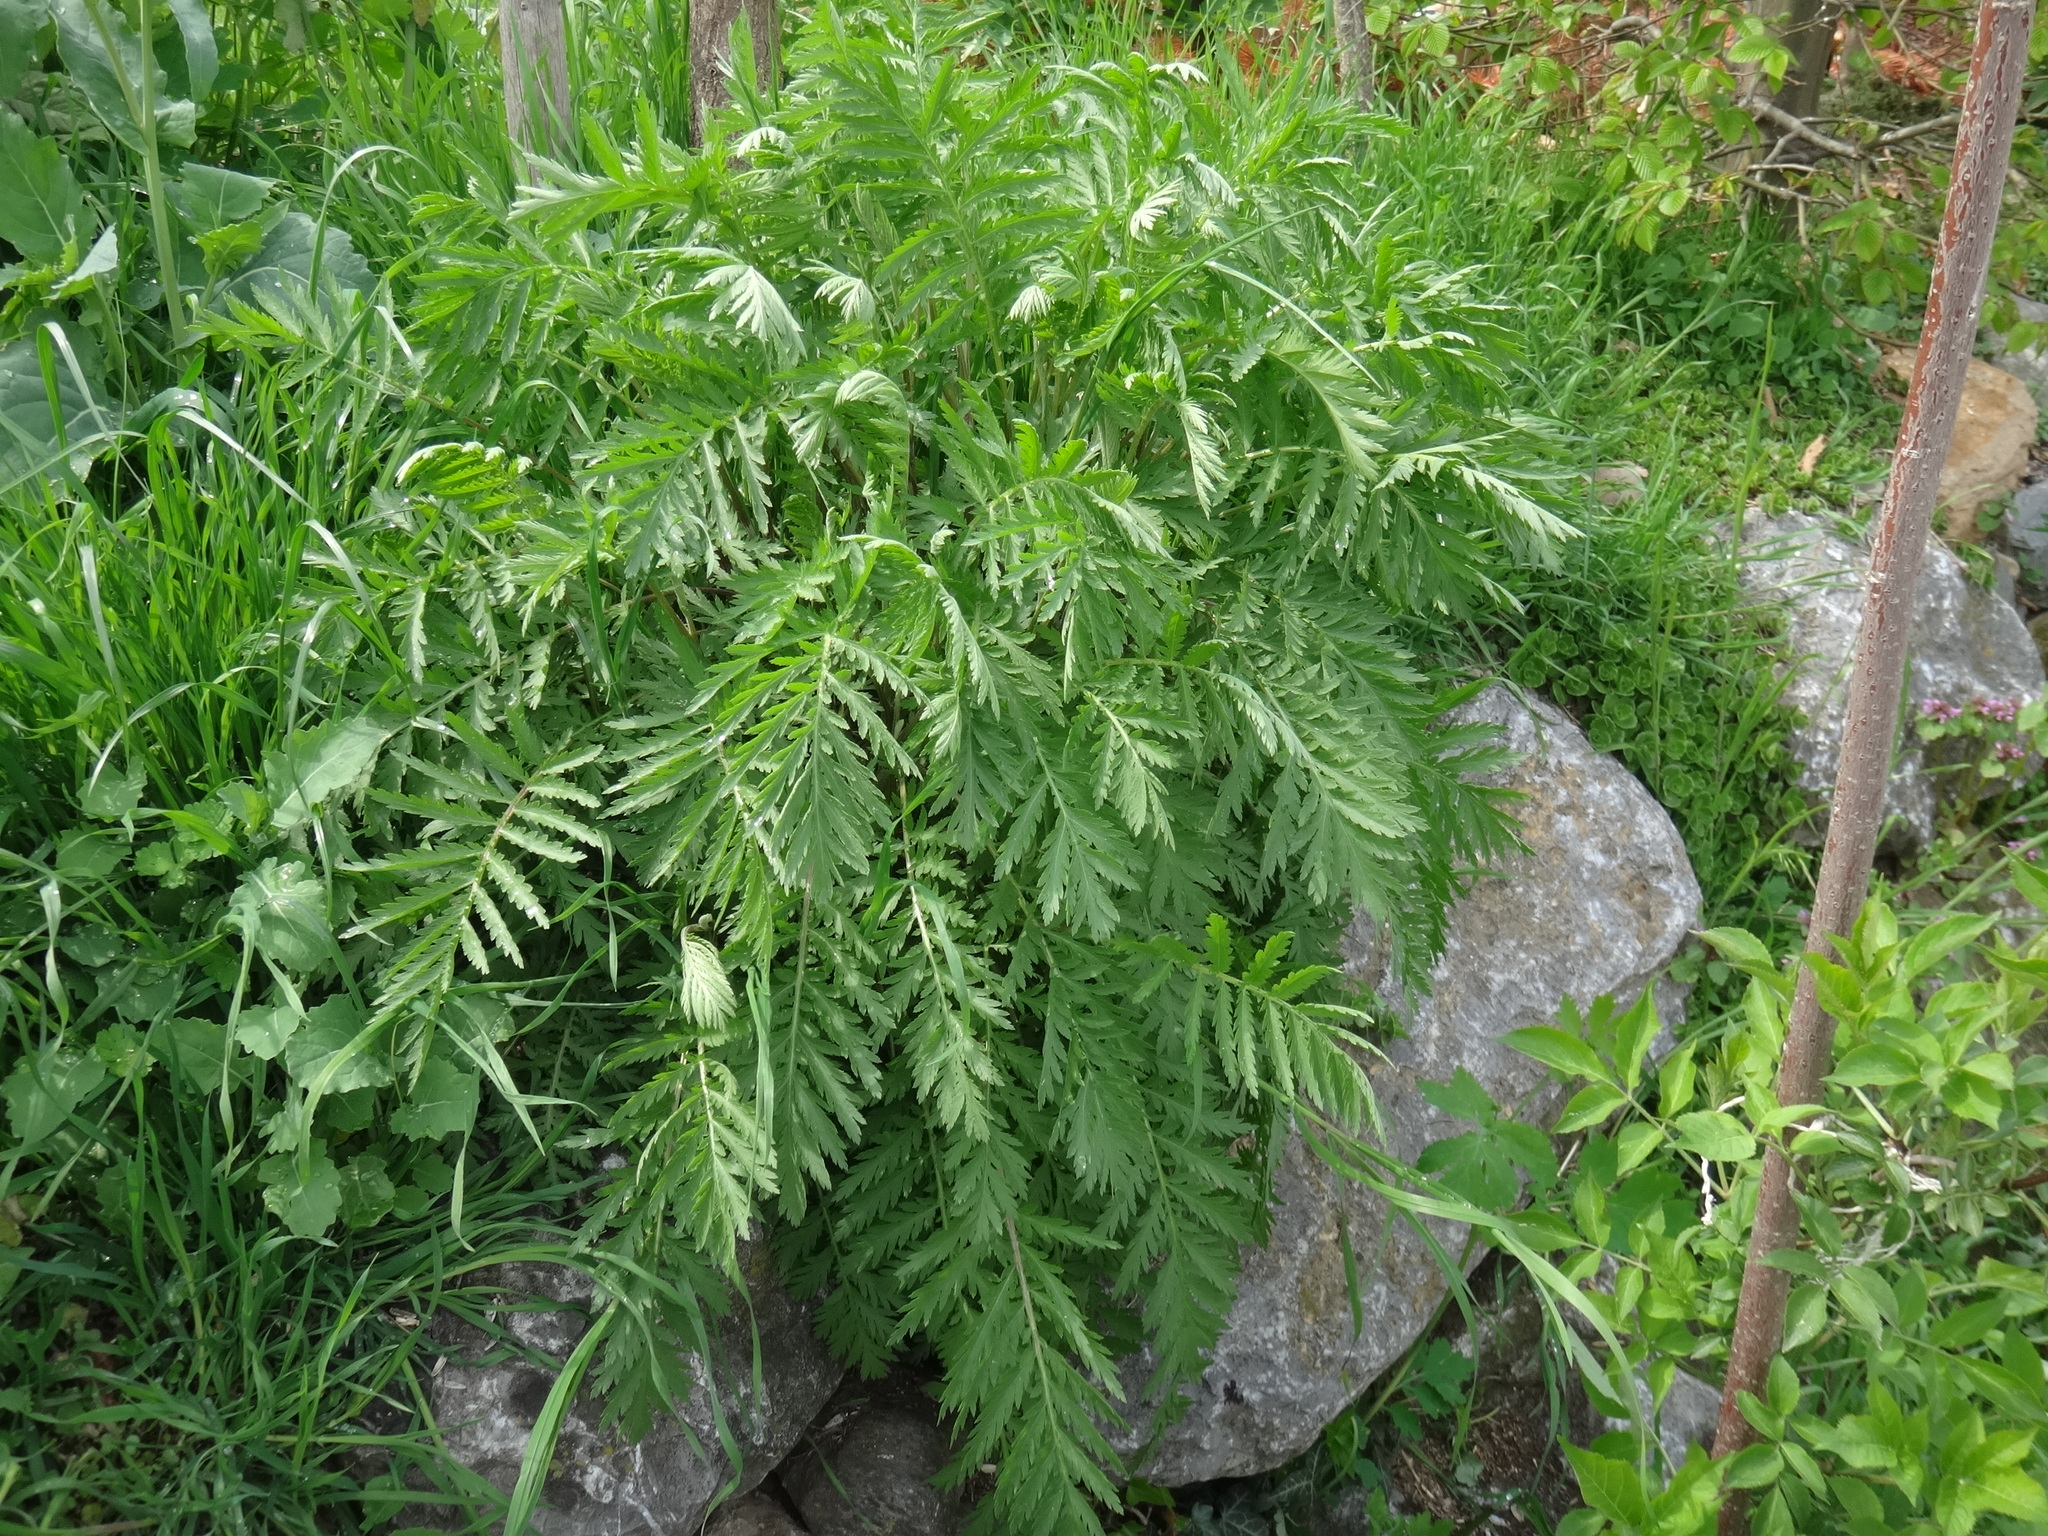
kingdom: Plantae
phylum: Tracheophyta
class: Magnoliopsida
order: Asterales
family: Asteraceae
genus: Tanacetum
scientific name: Tanacetum vulgare
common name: Common tansy
